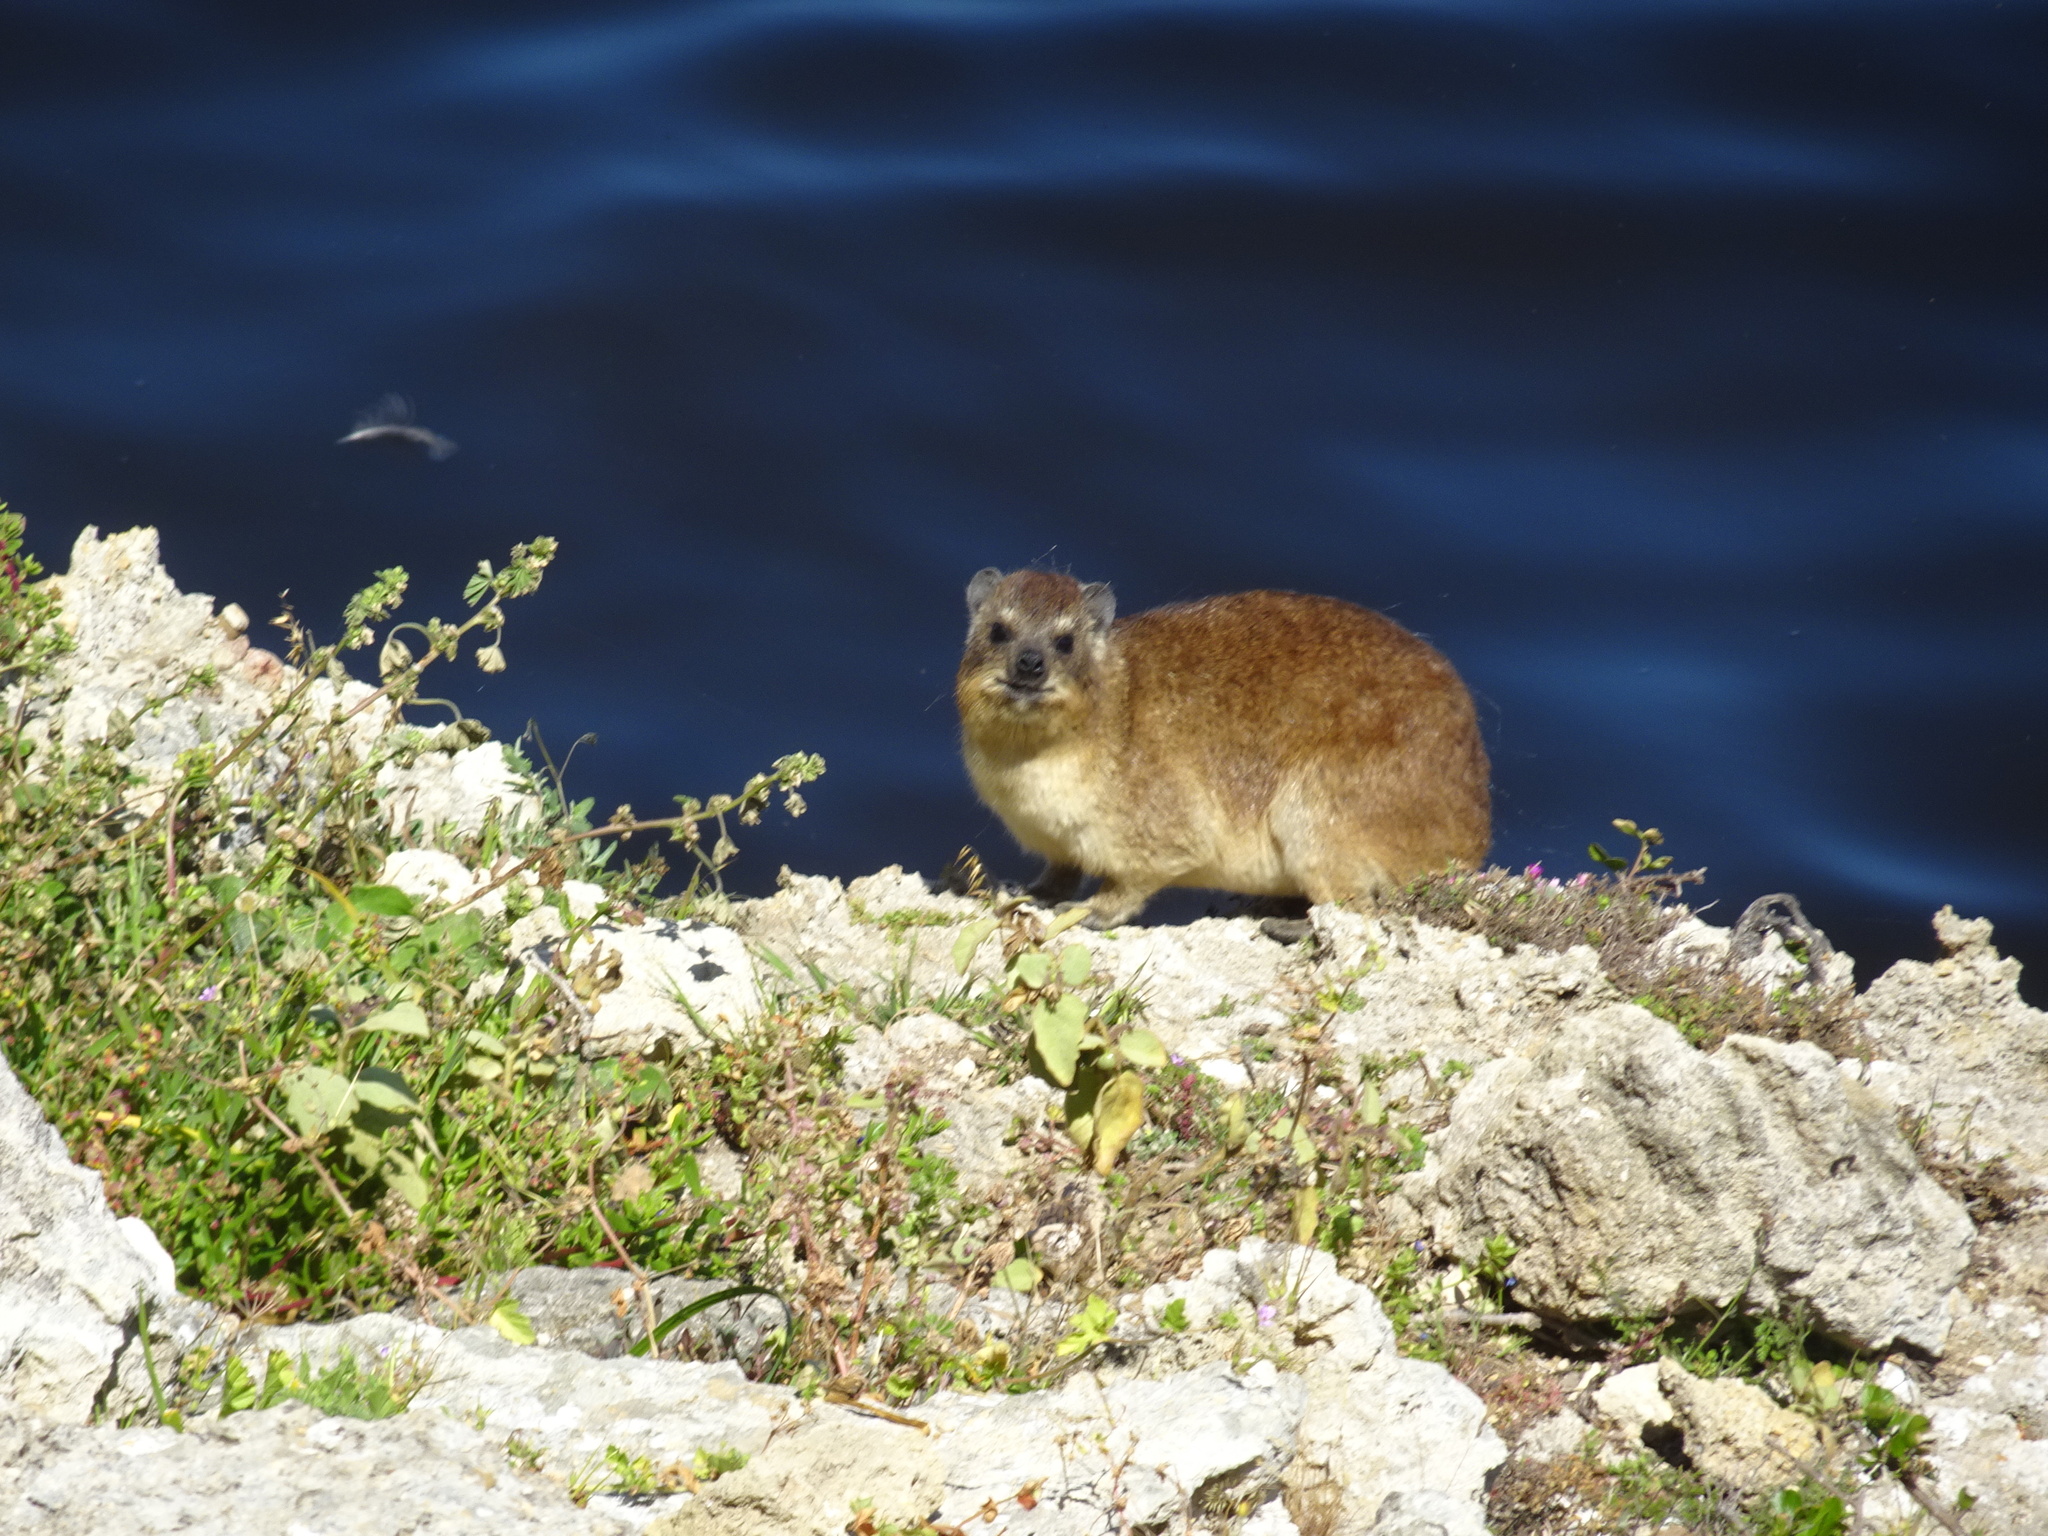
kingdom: Animalia
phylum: Chordata
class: Mammalia
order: Hyracoidea
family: Procaviidae
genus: Procavia
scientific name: Procavia capensis
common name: Rock hyrax
